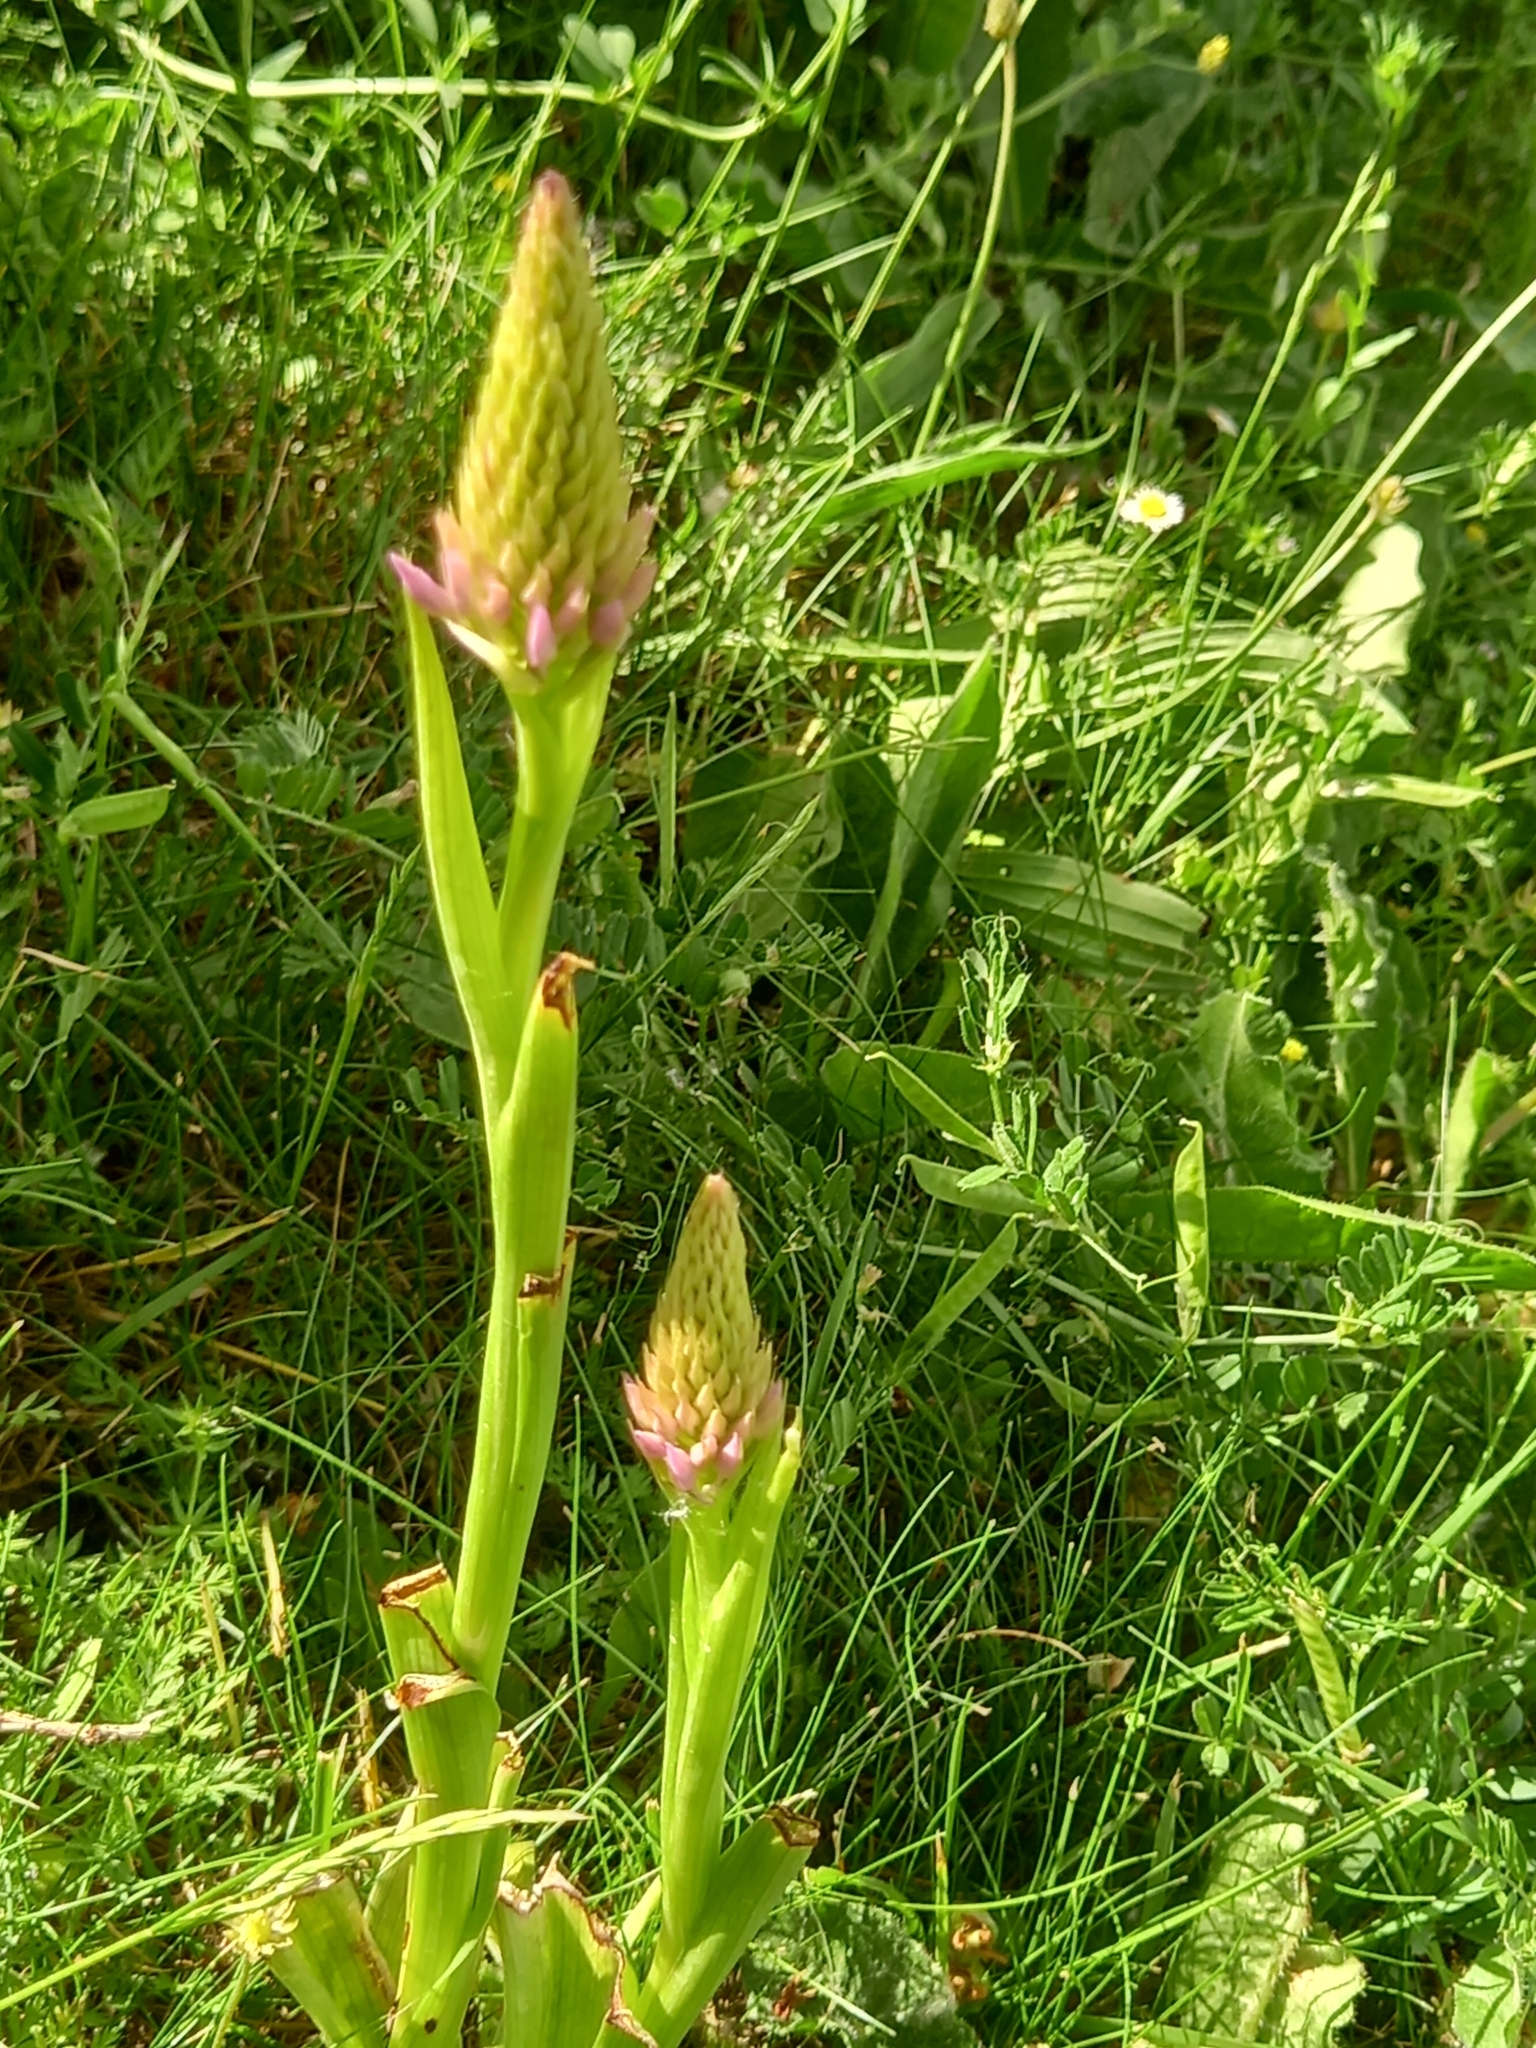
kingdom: Plantae
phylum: Tracheophyta
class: Liliopsida
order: Asparagales
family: Orchidaceae
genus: Anacamptis
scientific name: Anacamptis pyramidalis
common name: Pyramidal orchid
